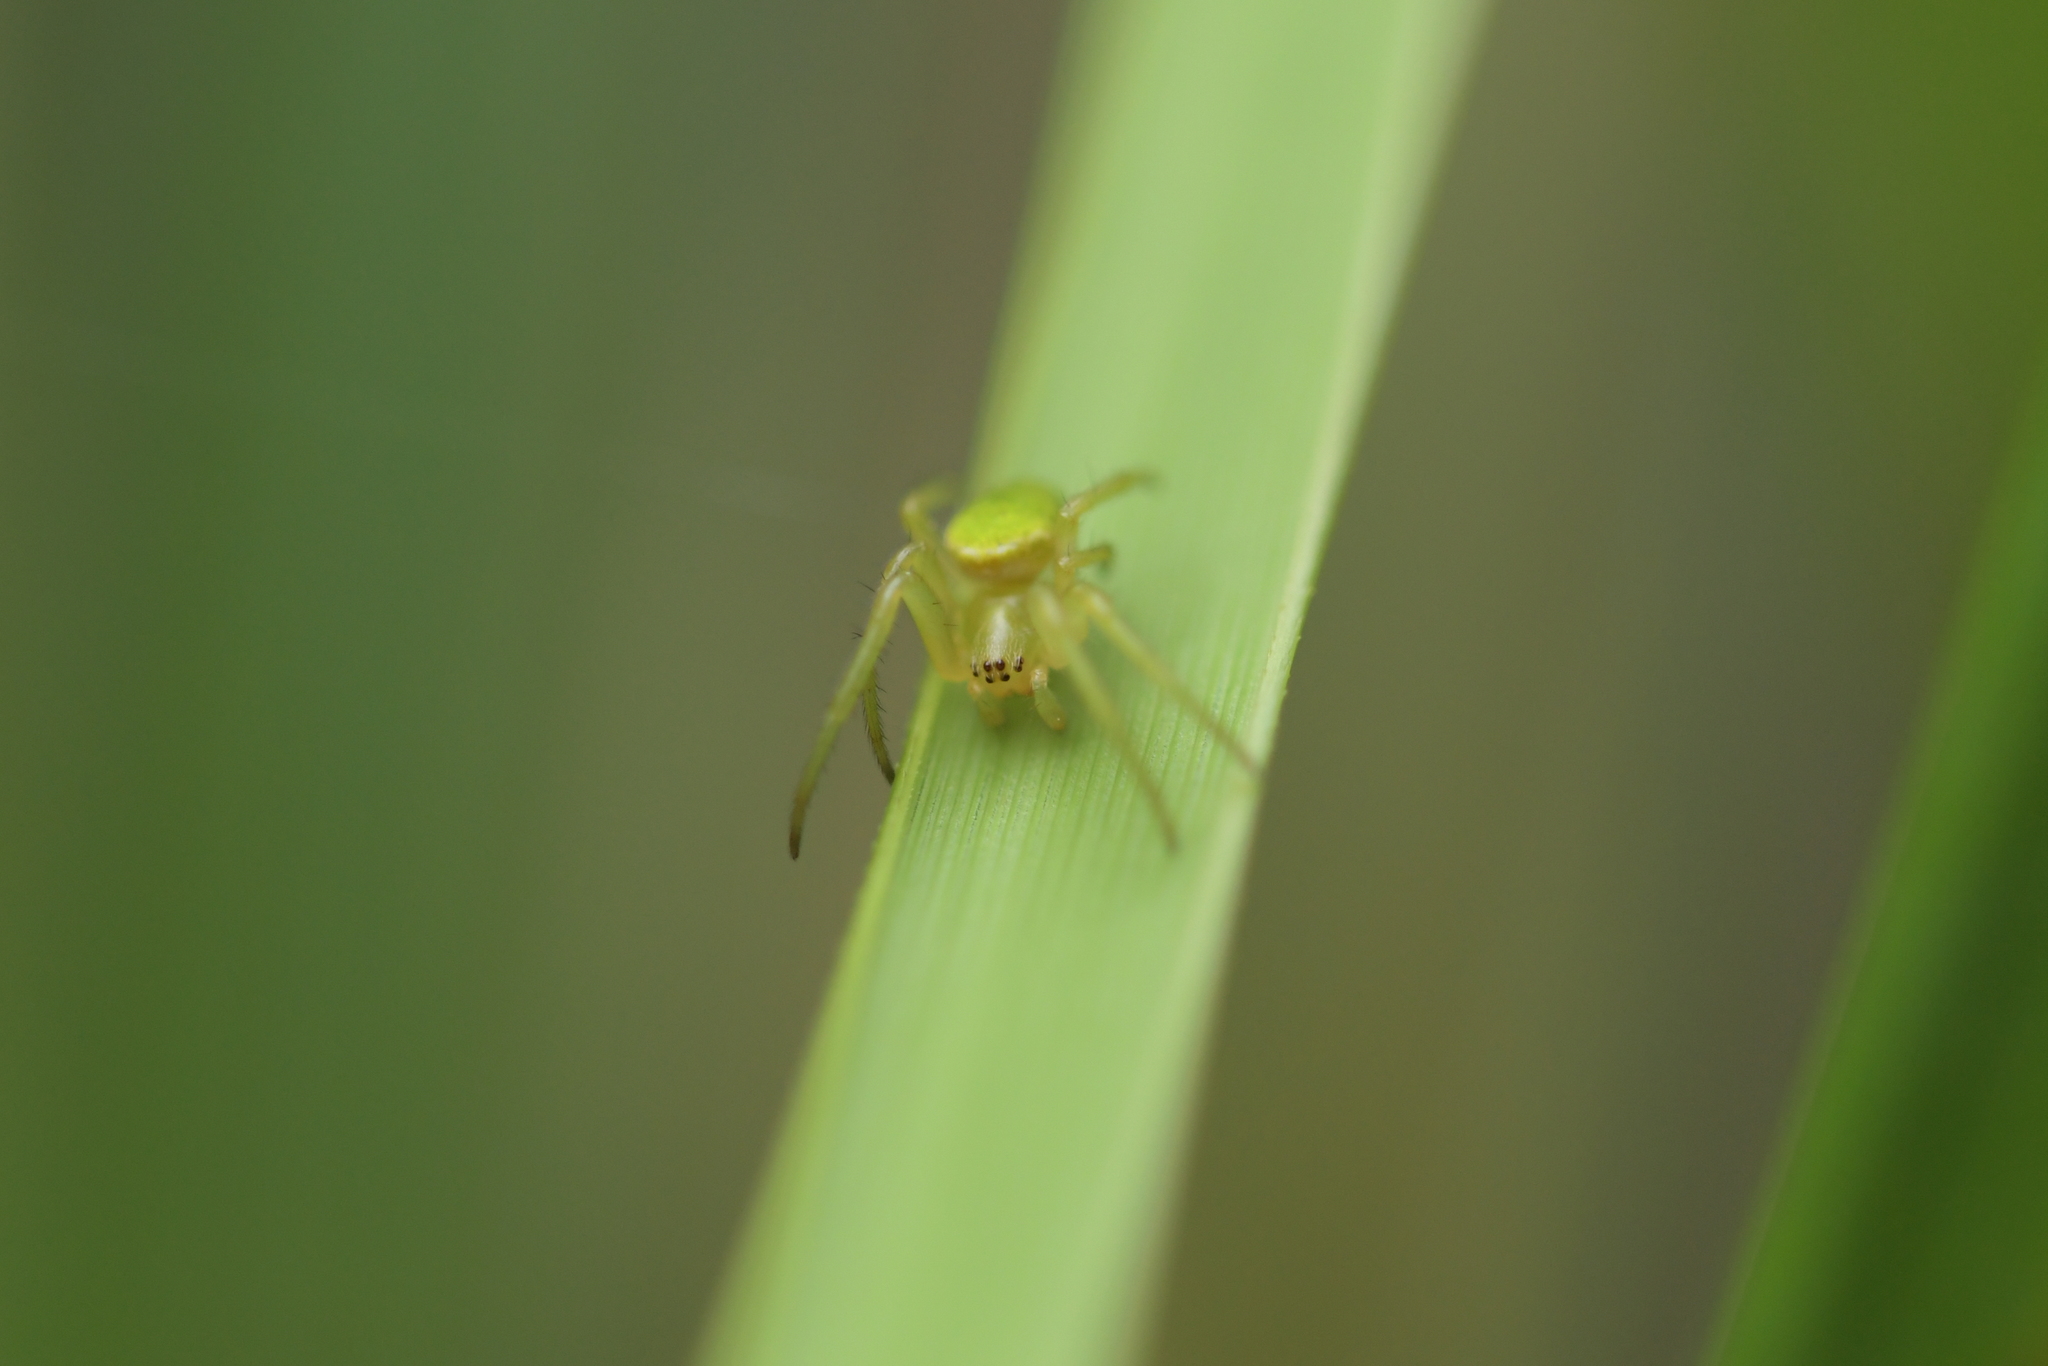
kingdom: Animalia
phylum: Arthropoda
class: Arachnida
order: Araneae
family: Araneidae
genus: Colaranea
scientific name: Colaranea viriditas
